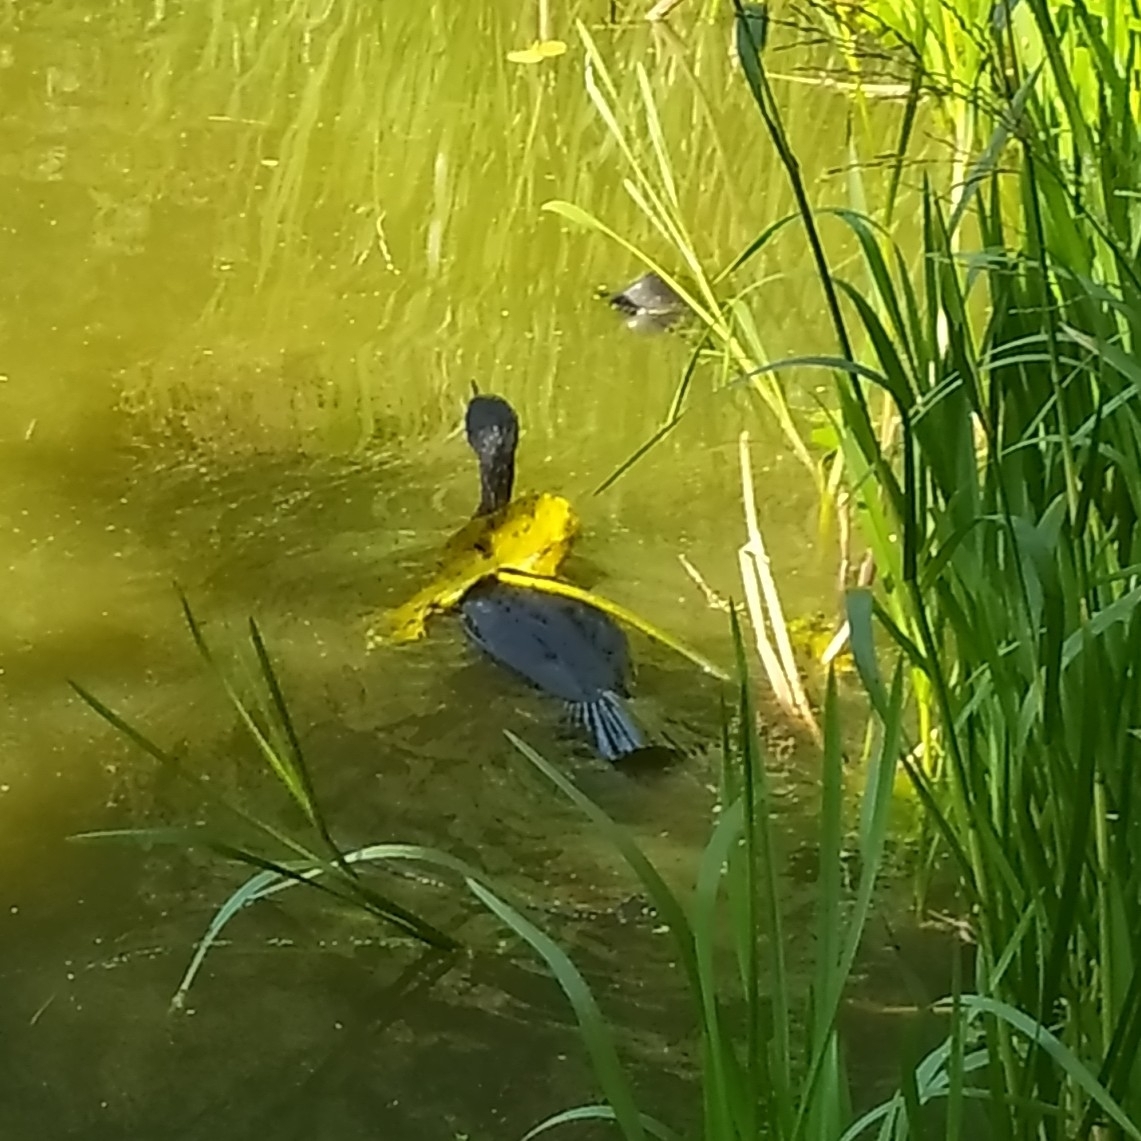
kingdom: Animalia
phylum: Chordata
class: Aves
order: Suliformes
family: Phalacrocoracidae
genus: Phalacrocorax
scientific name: Phalacrocorax carbo
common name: Great cormorant
